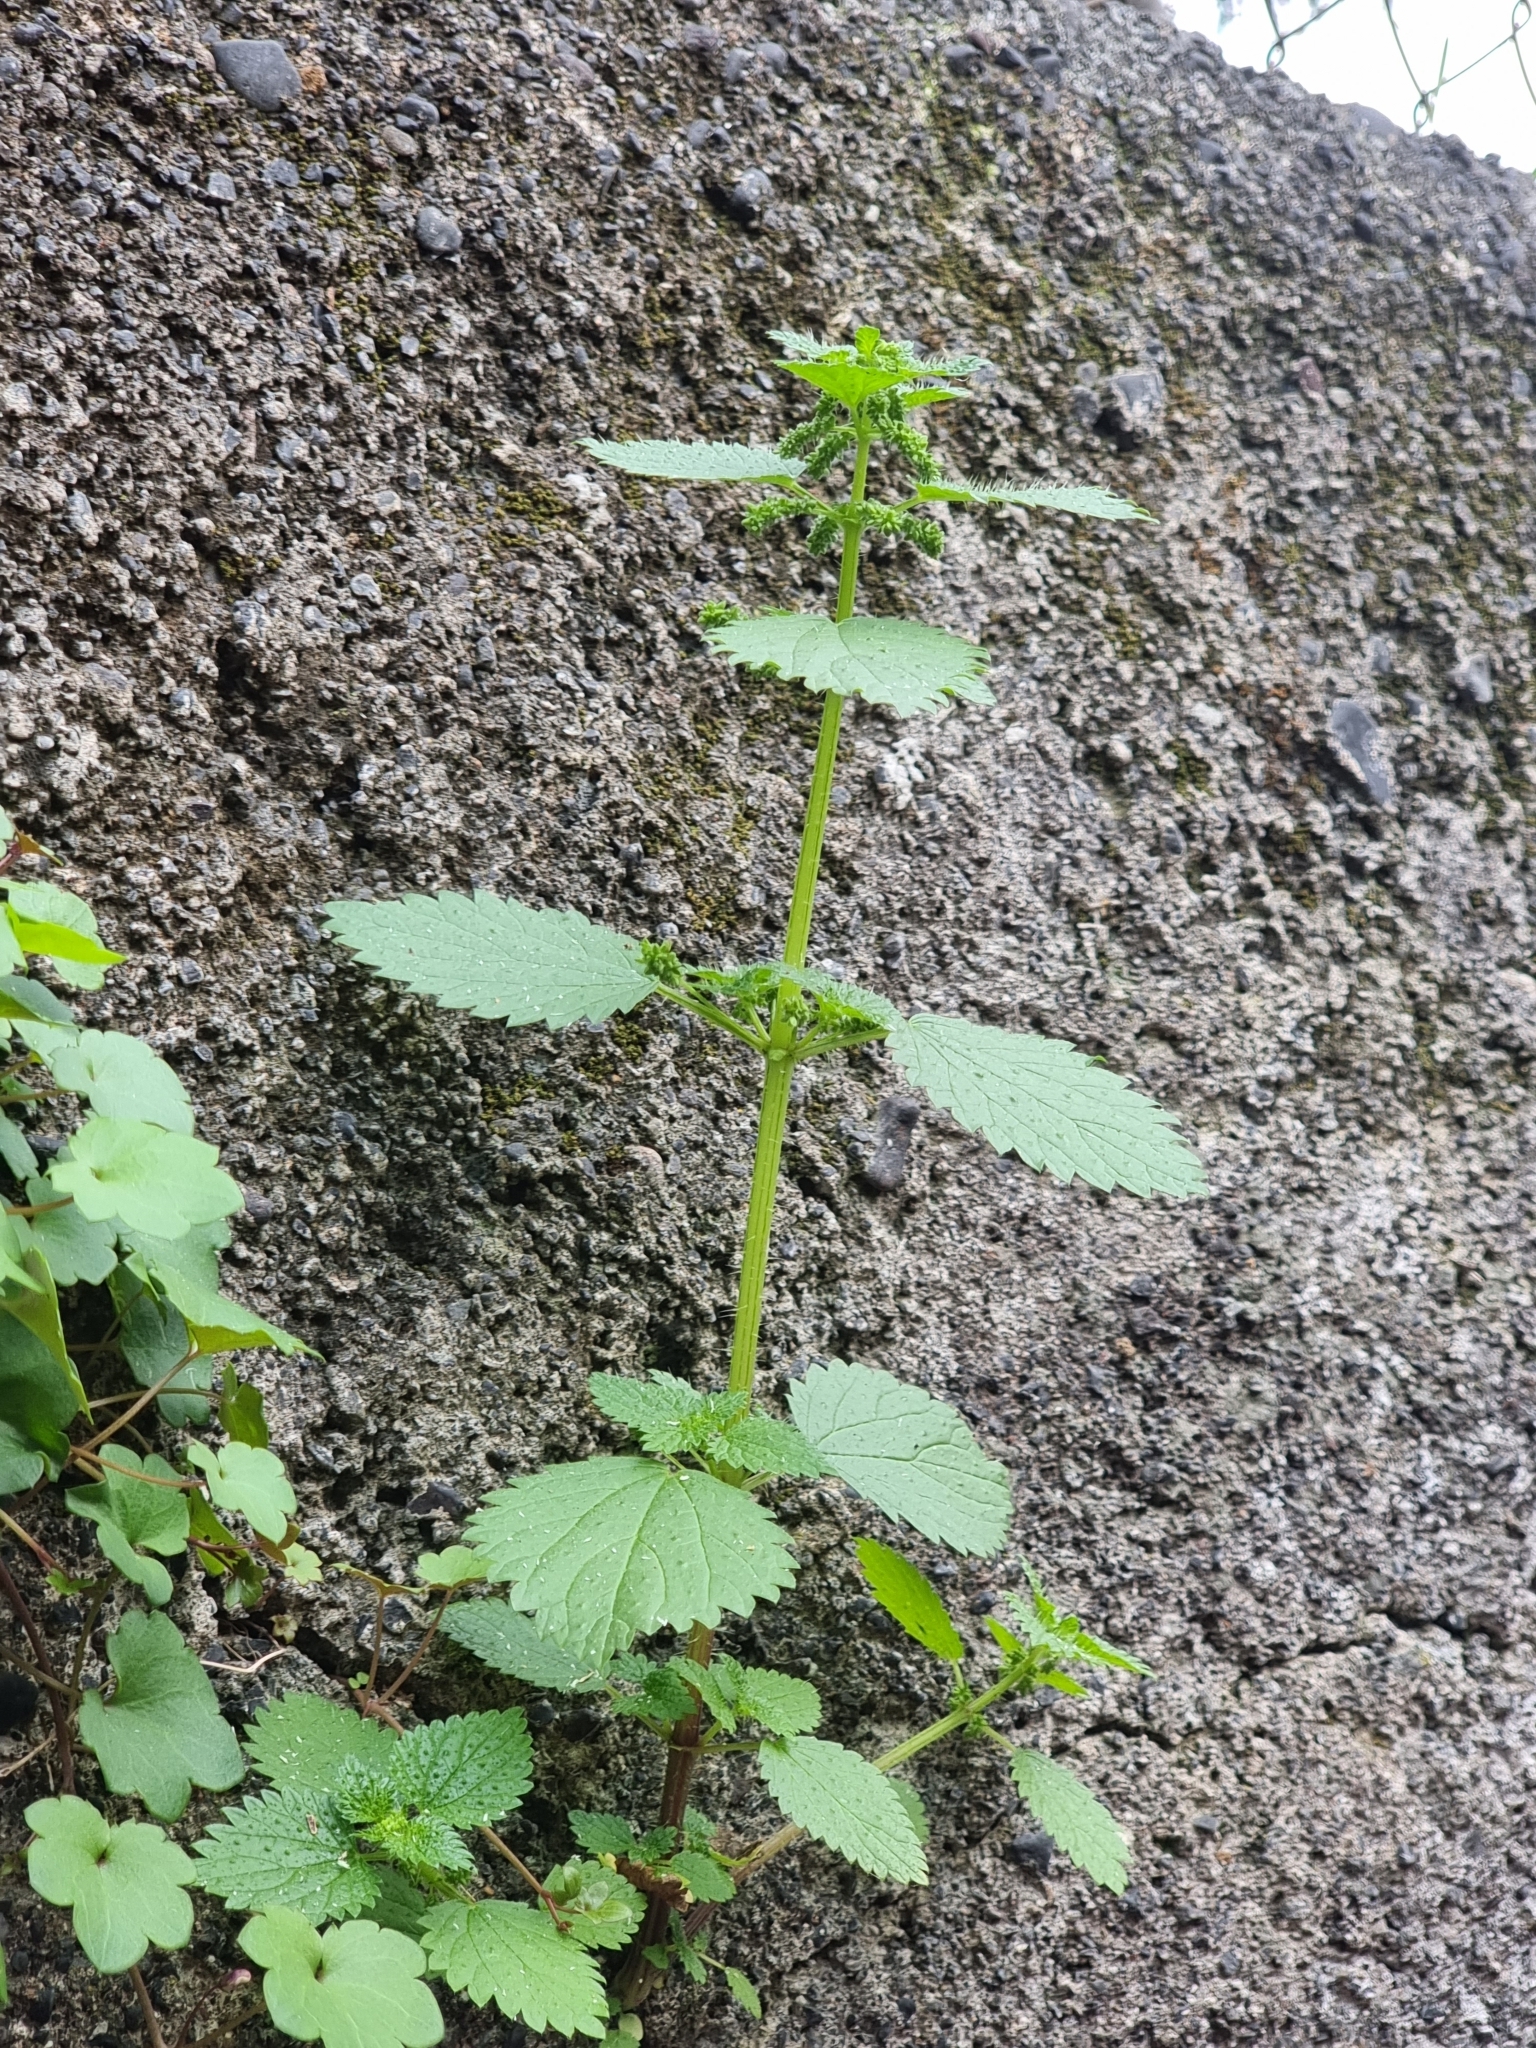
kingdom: Plantae
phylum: Tracheophyta
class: Magnoliopsida
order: Rosales
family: Urticaceae
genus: Urtica
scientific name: Urtica membranacea
